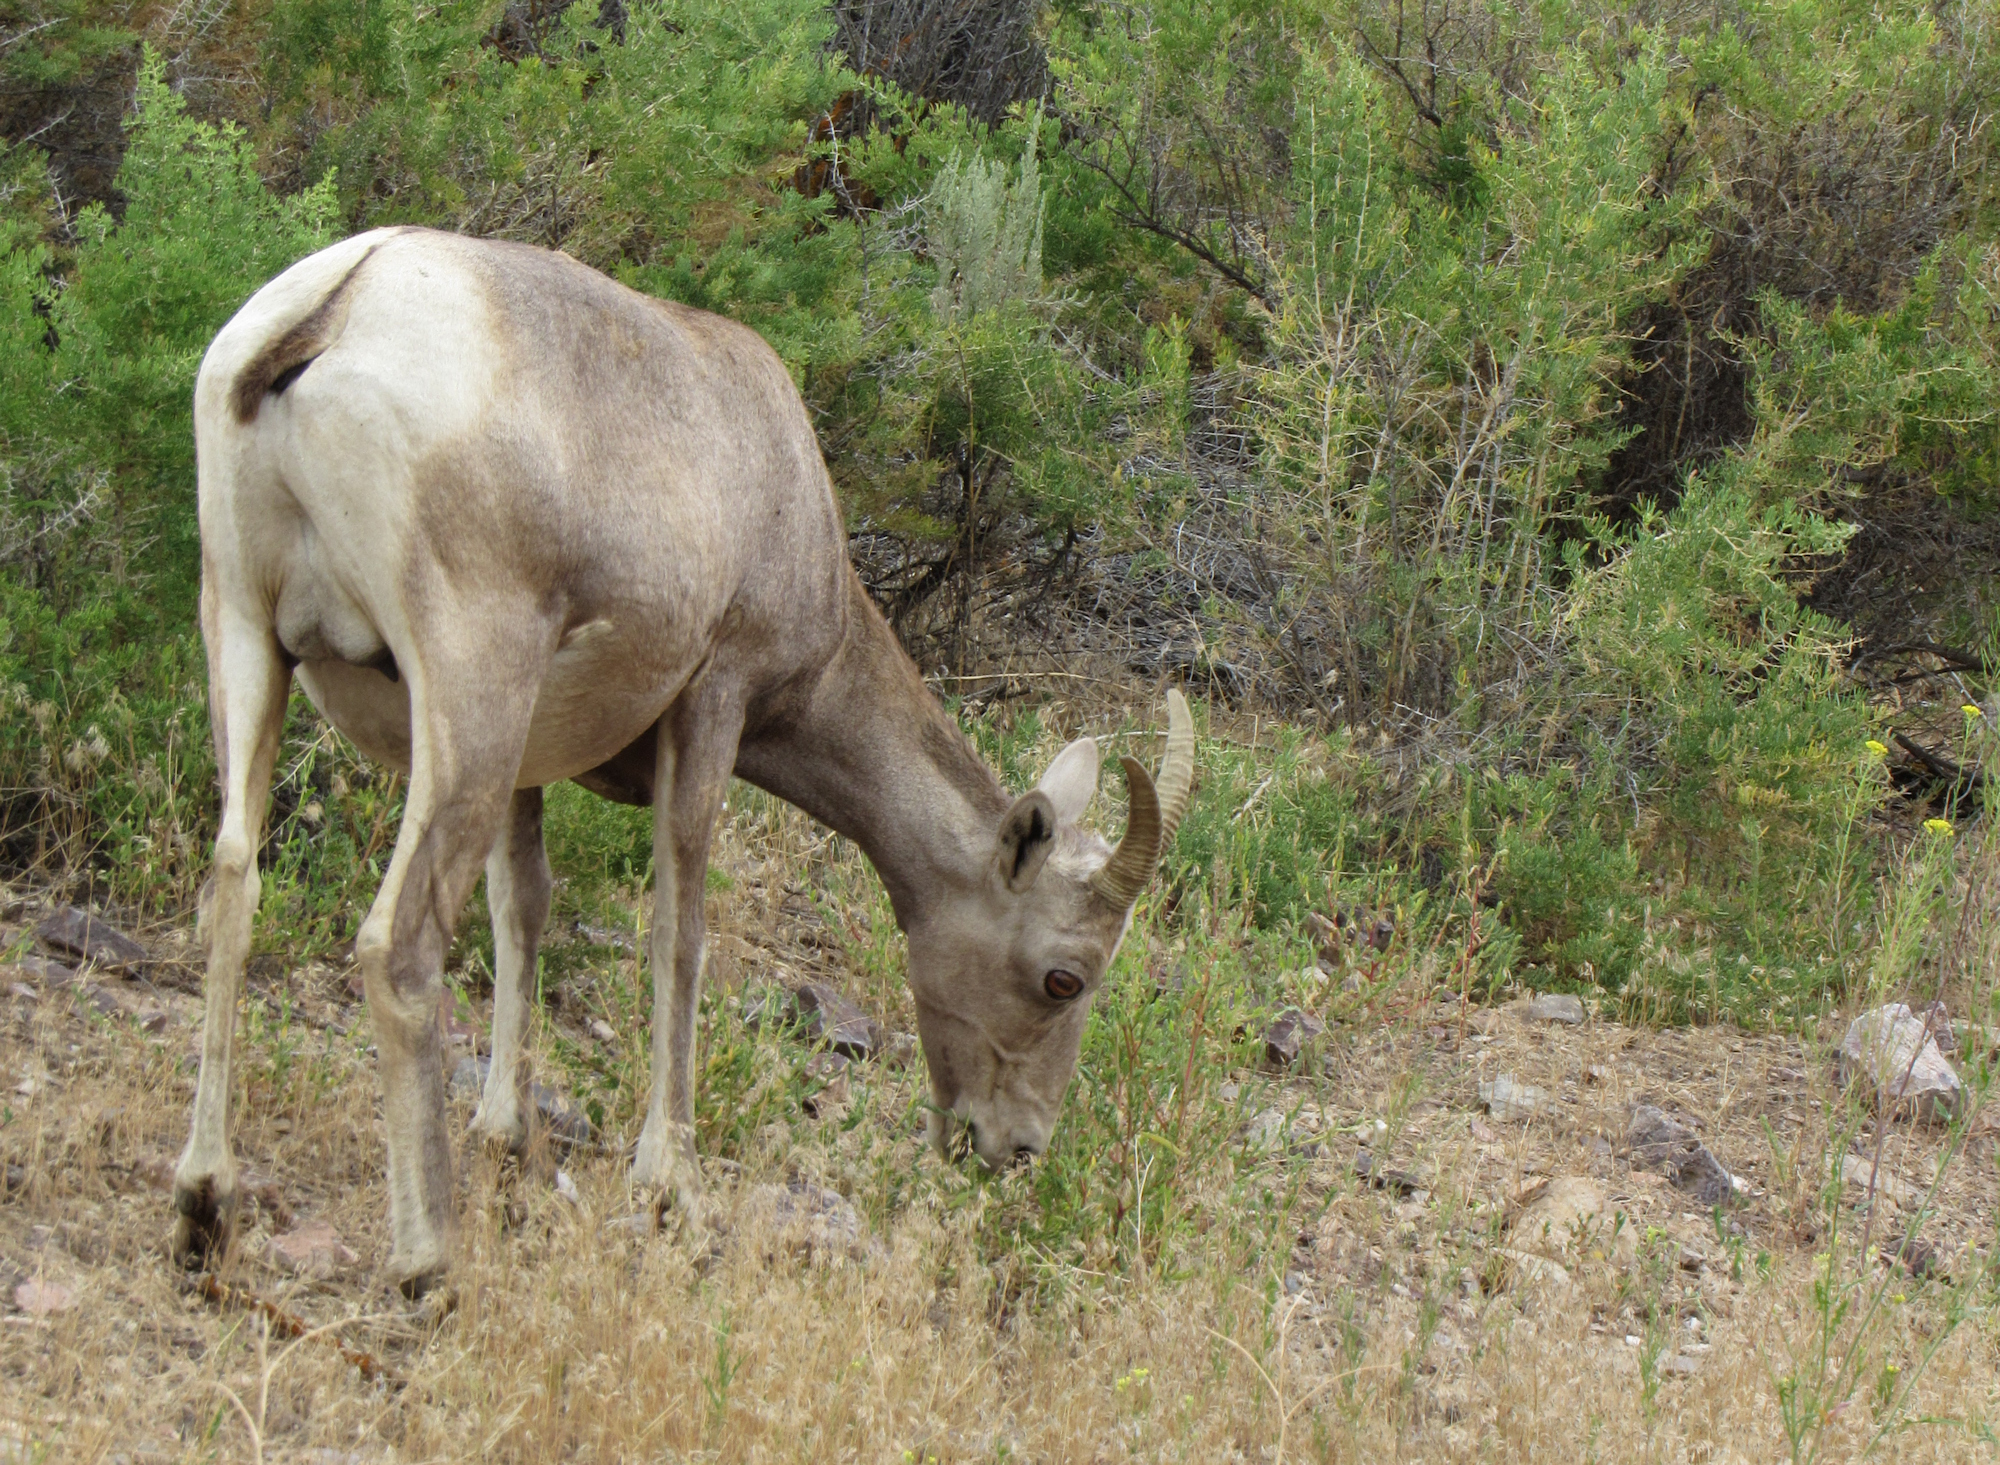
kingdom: Animalia
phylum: Chordata
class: Mammalia
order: Artiodactyla
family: Bovidae
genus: Ovis
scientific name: Ovis canadensis
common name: Bighorn sheep
